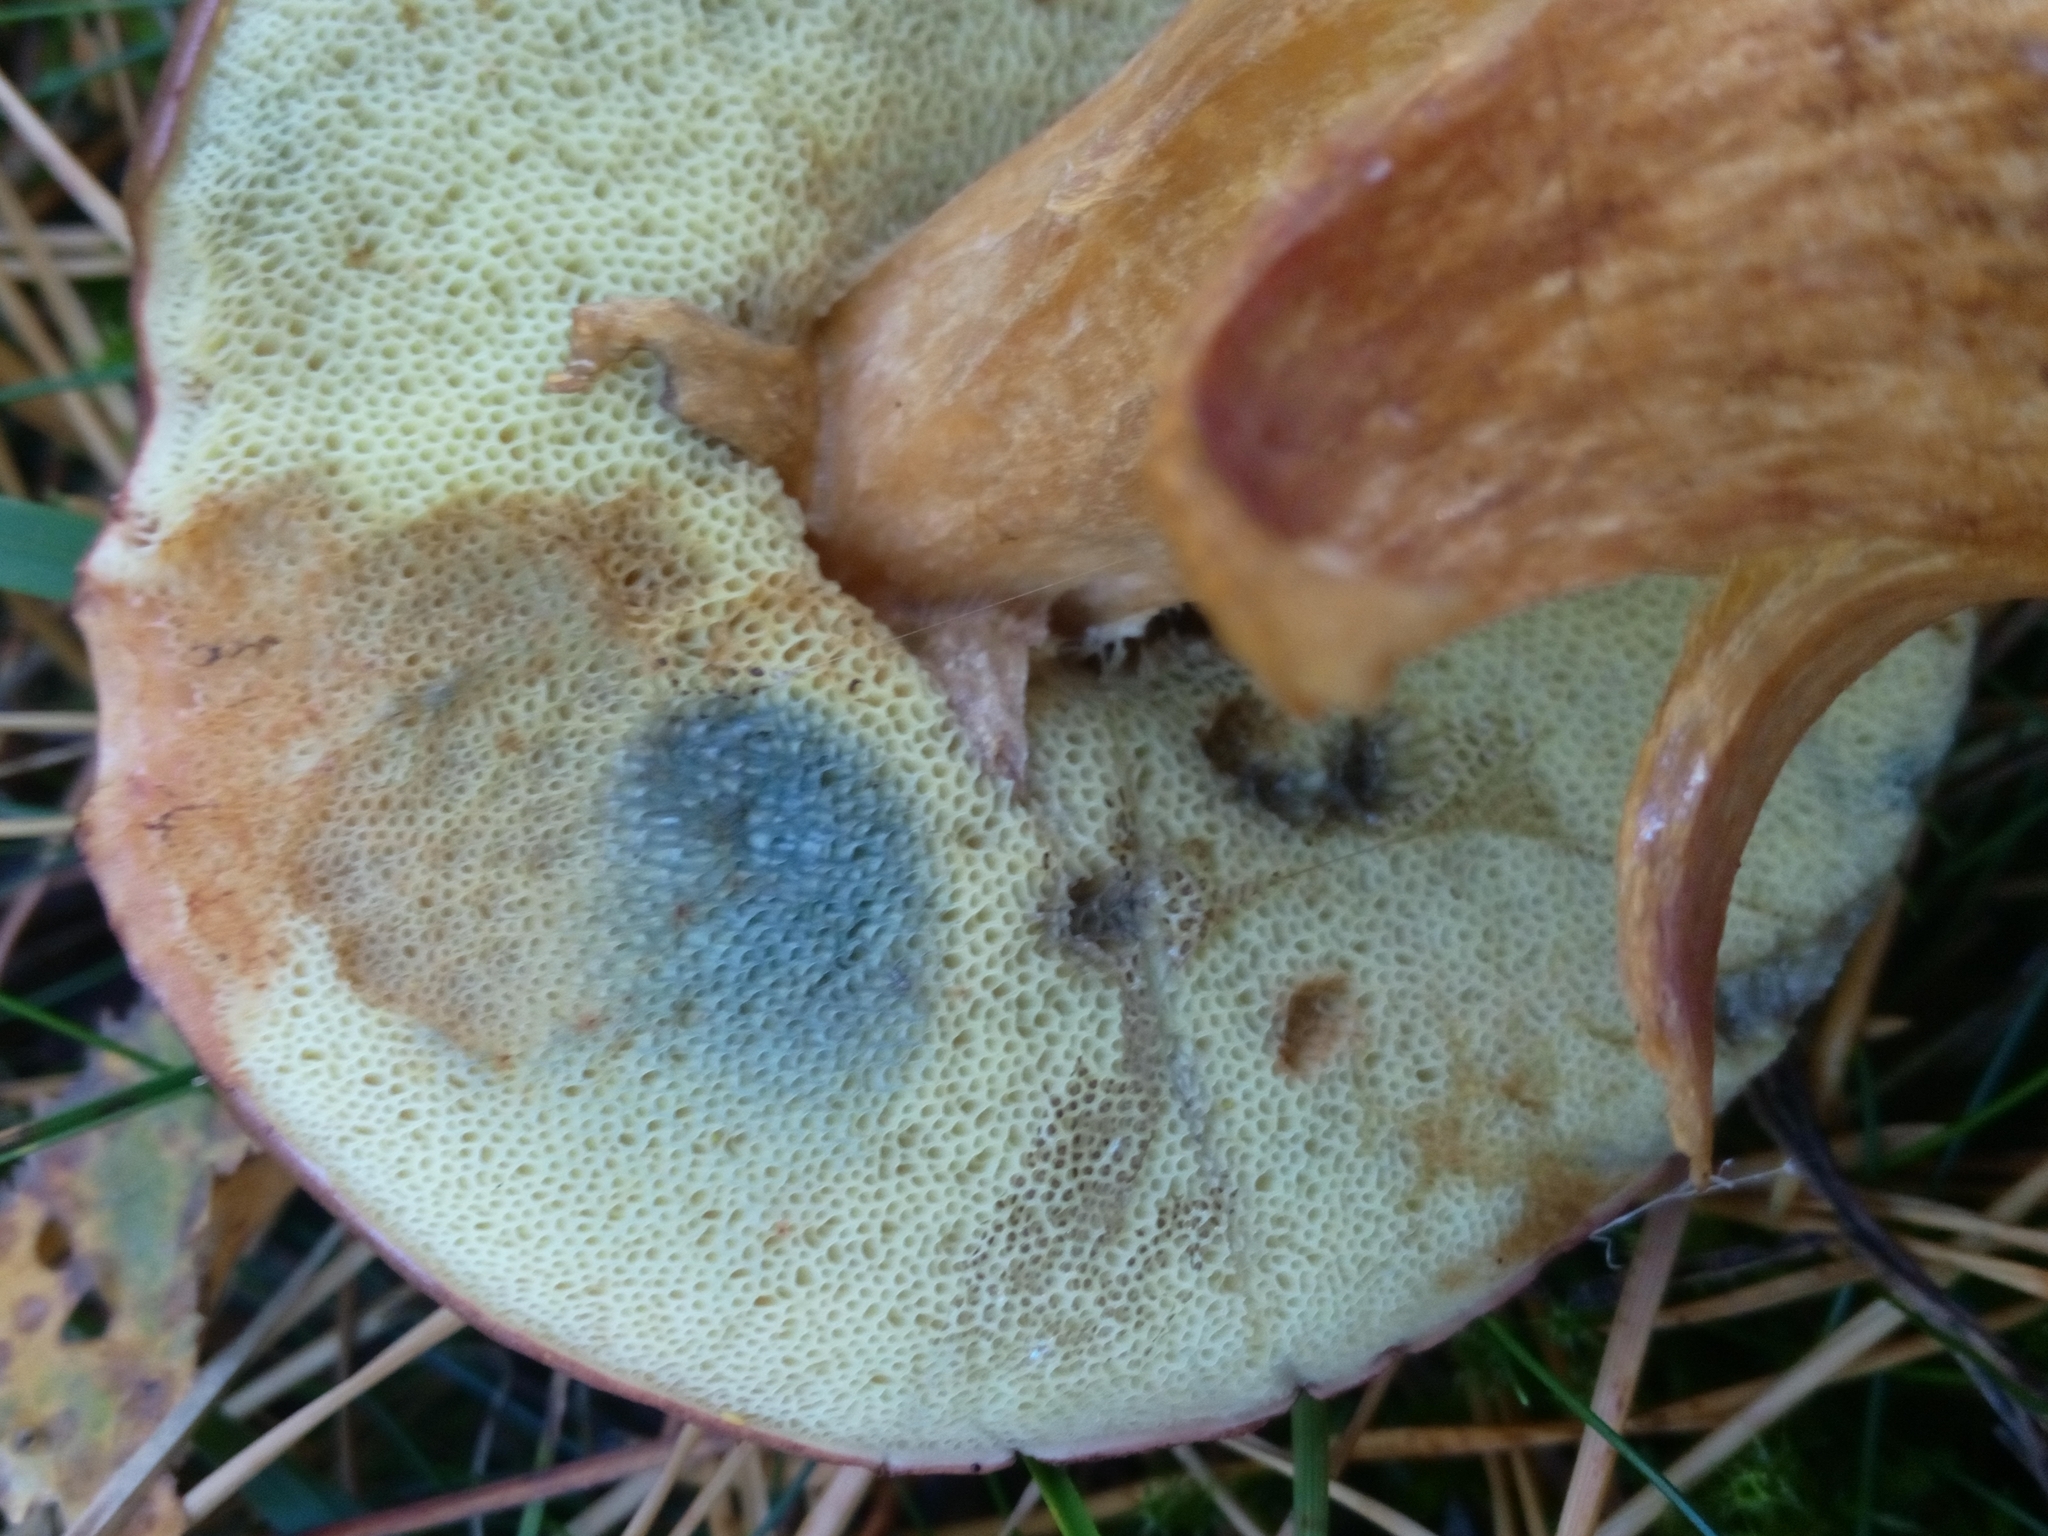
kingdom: Fungi
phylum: Basidiomycota
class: Agaricomycetes
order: Boletales
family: Boletaceae
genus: Imleria
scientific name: Imleria badia
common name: Bay bolete
